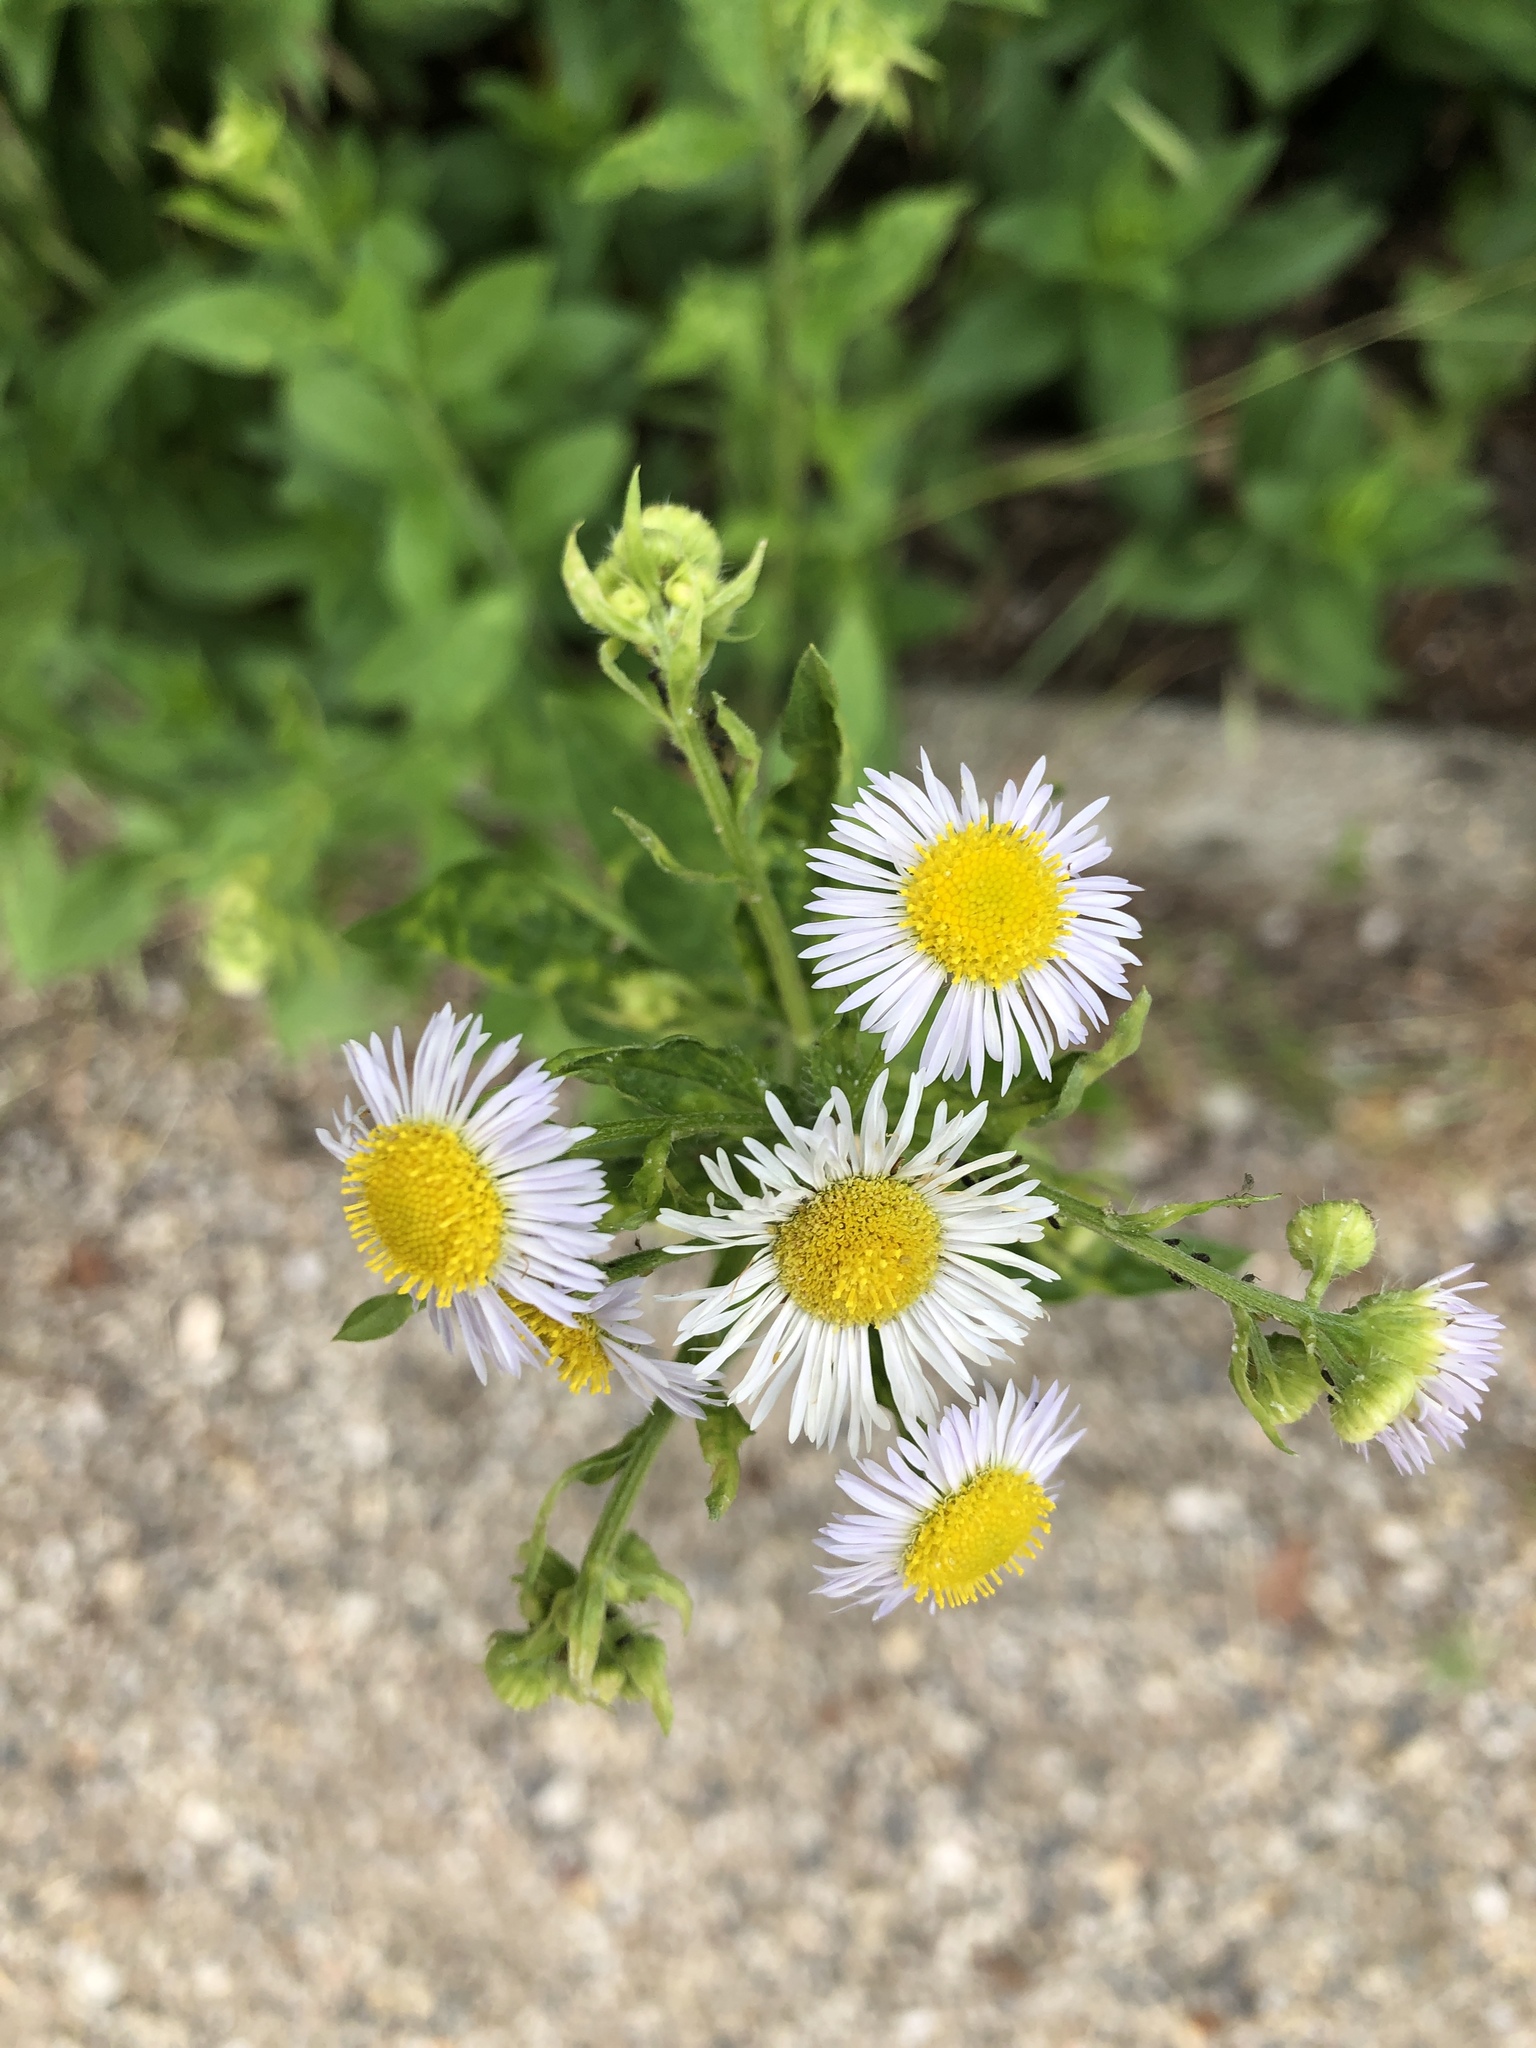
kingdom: Plantae
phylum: Tracheophyta
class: Magnoliopsida
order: Asterales
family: Asteraceae
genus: Erigeron
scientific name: Erigeron annuus
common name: Tall fleabane
